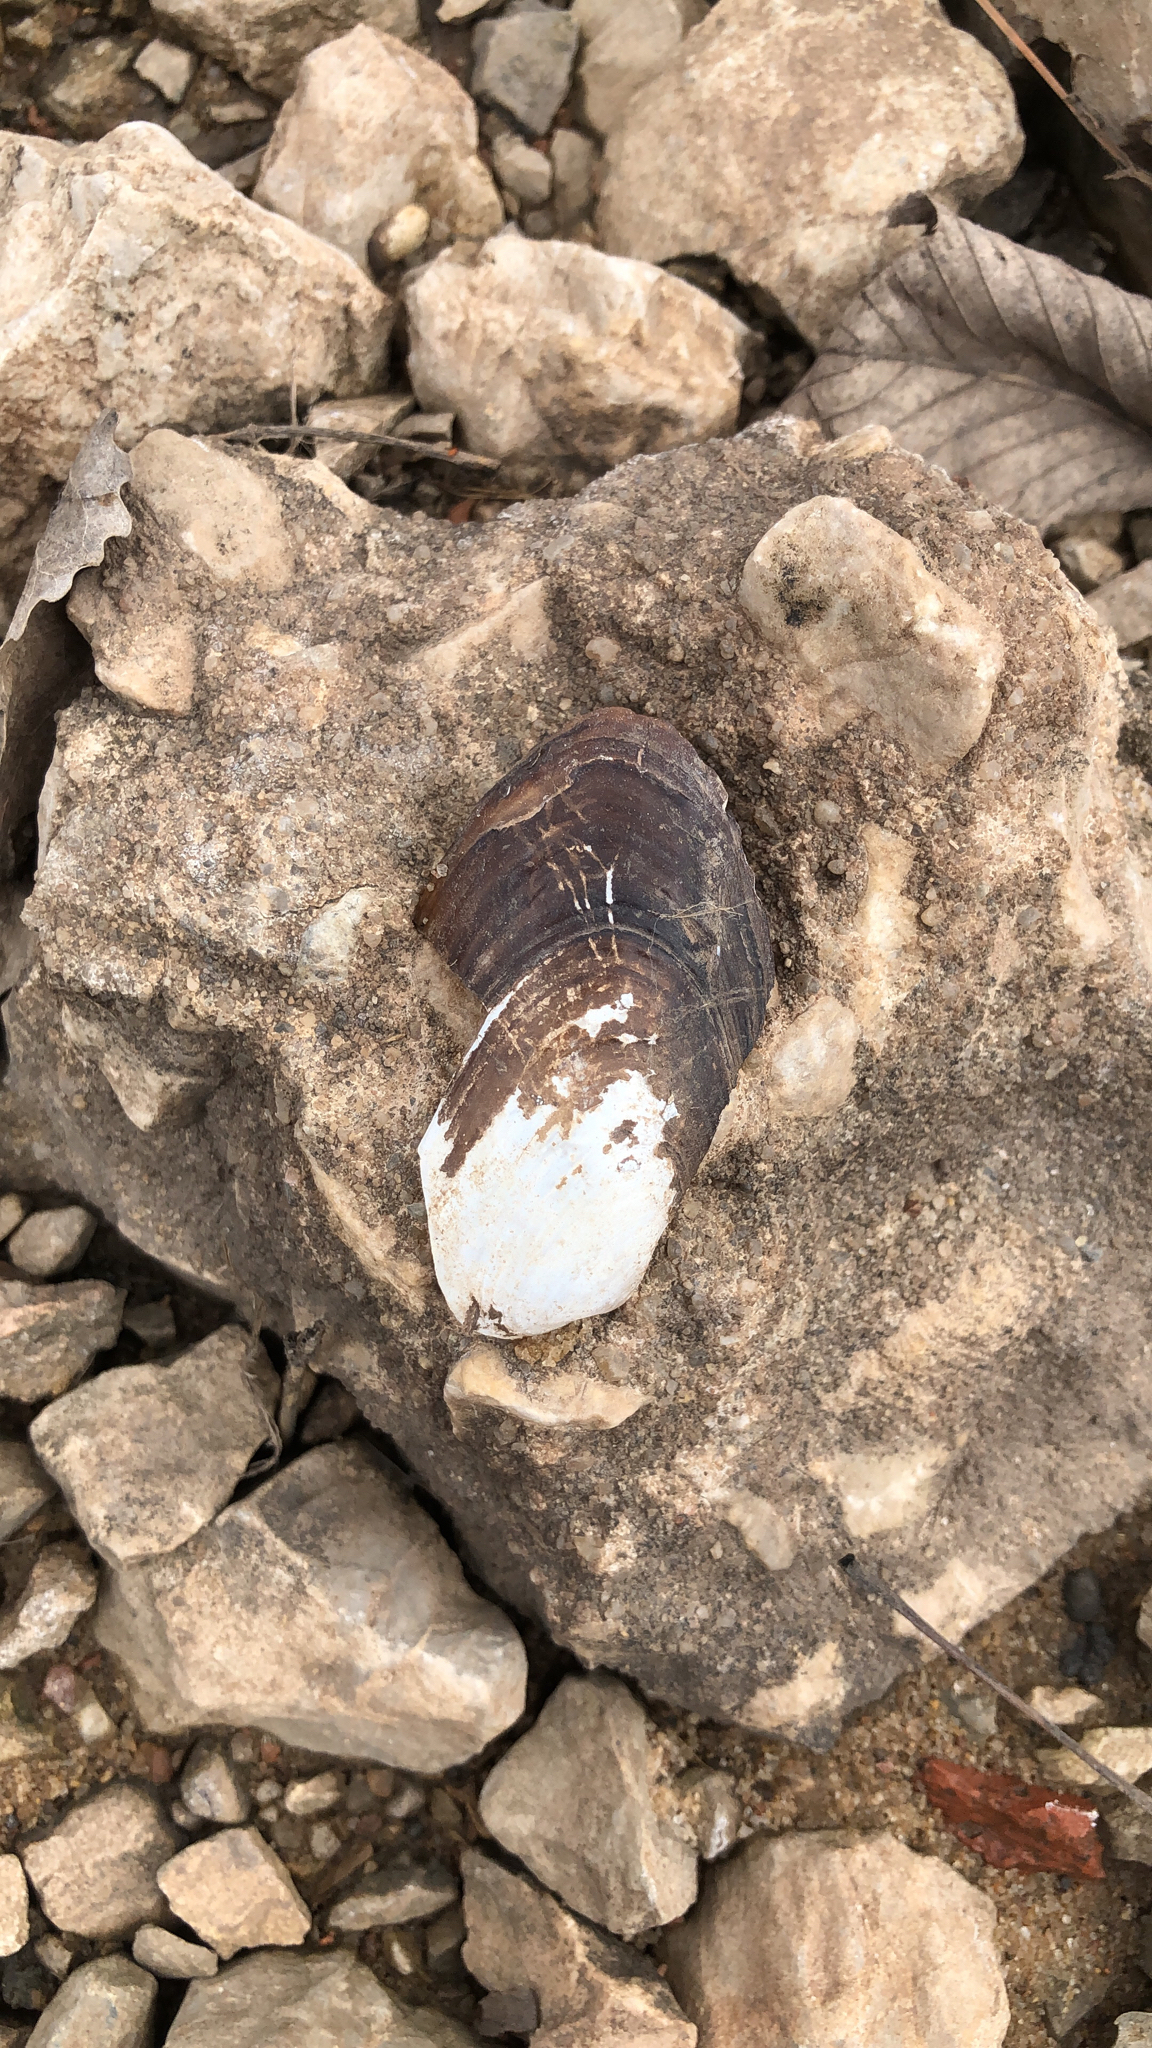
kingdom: Animalia
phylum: Mollusca
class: Bivalvia
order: Unionida
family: Unionidae
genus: Uniomerus
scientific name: Uniomerus tetralasmus
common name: Pondhorn
